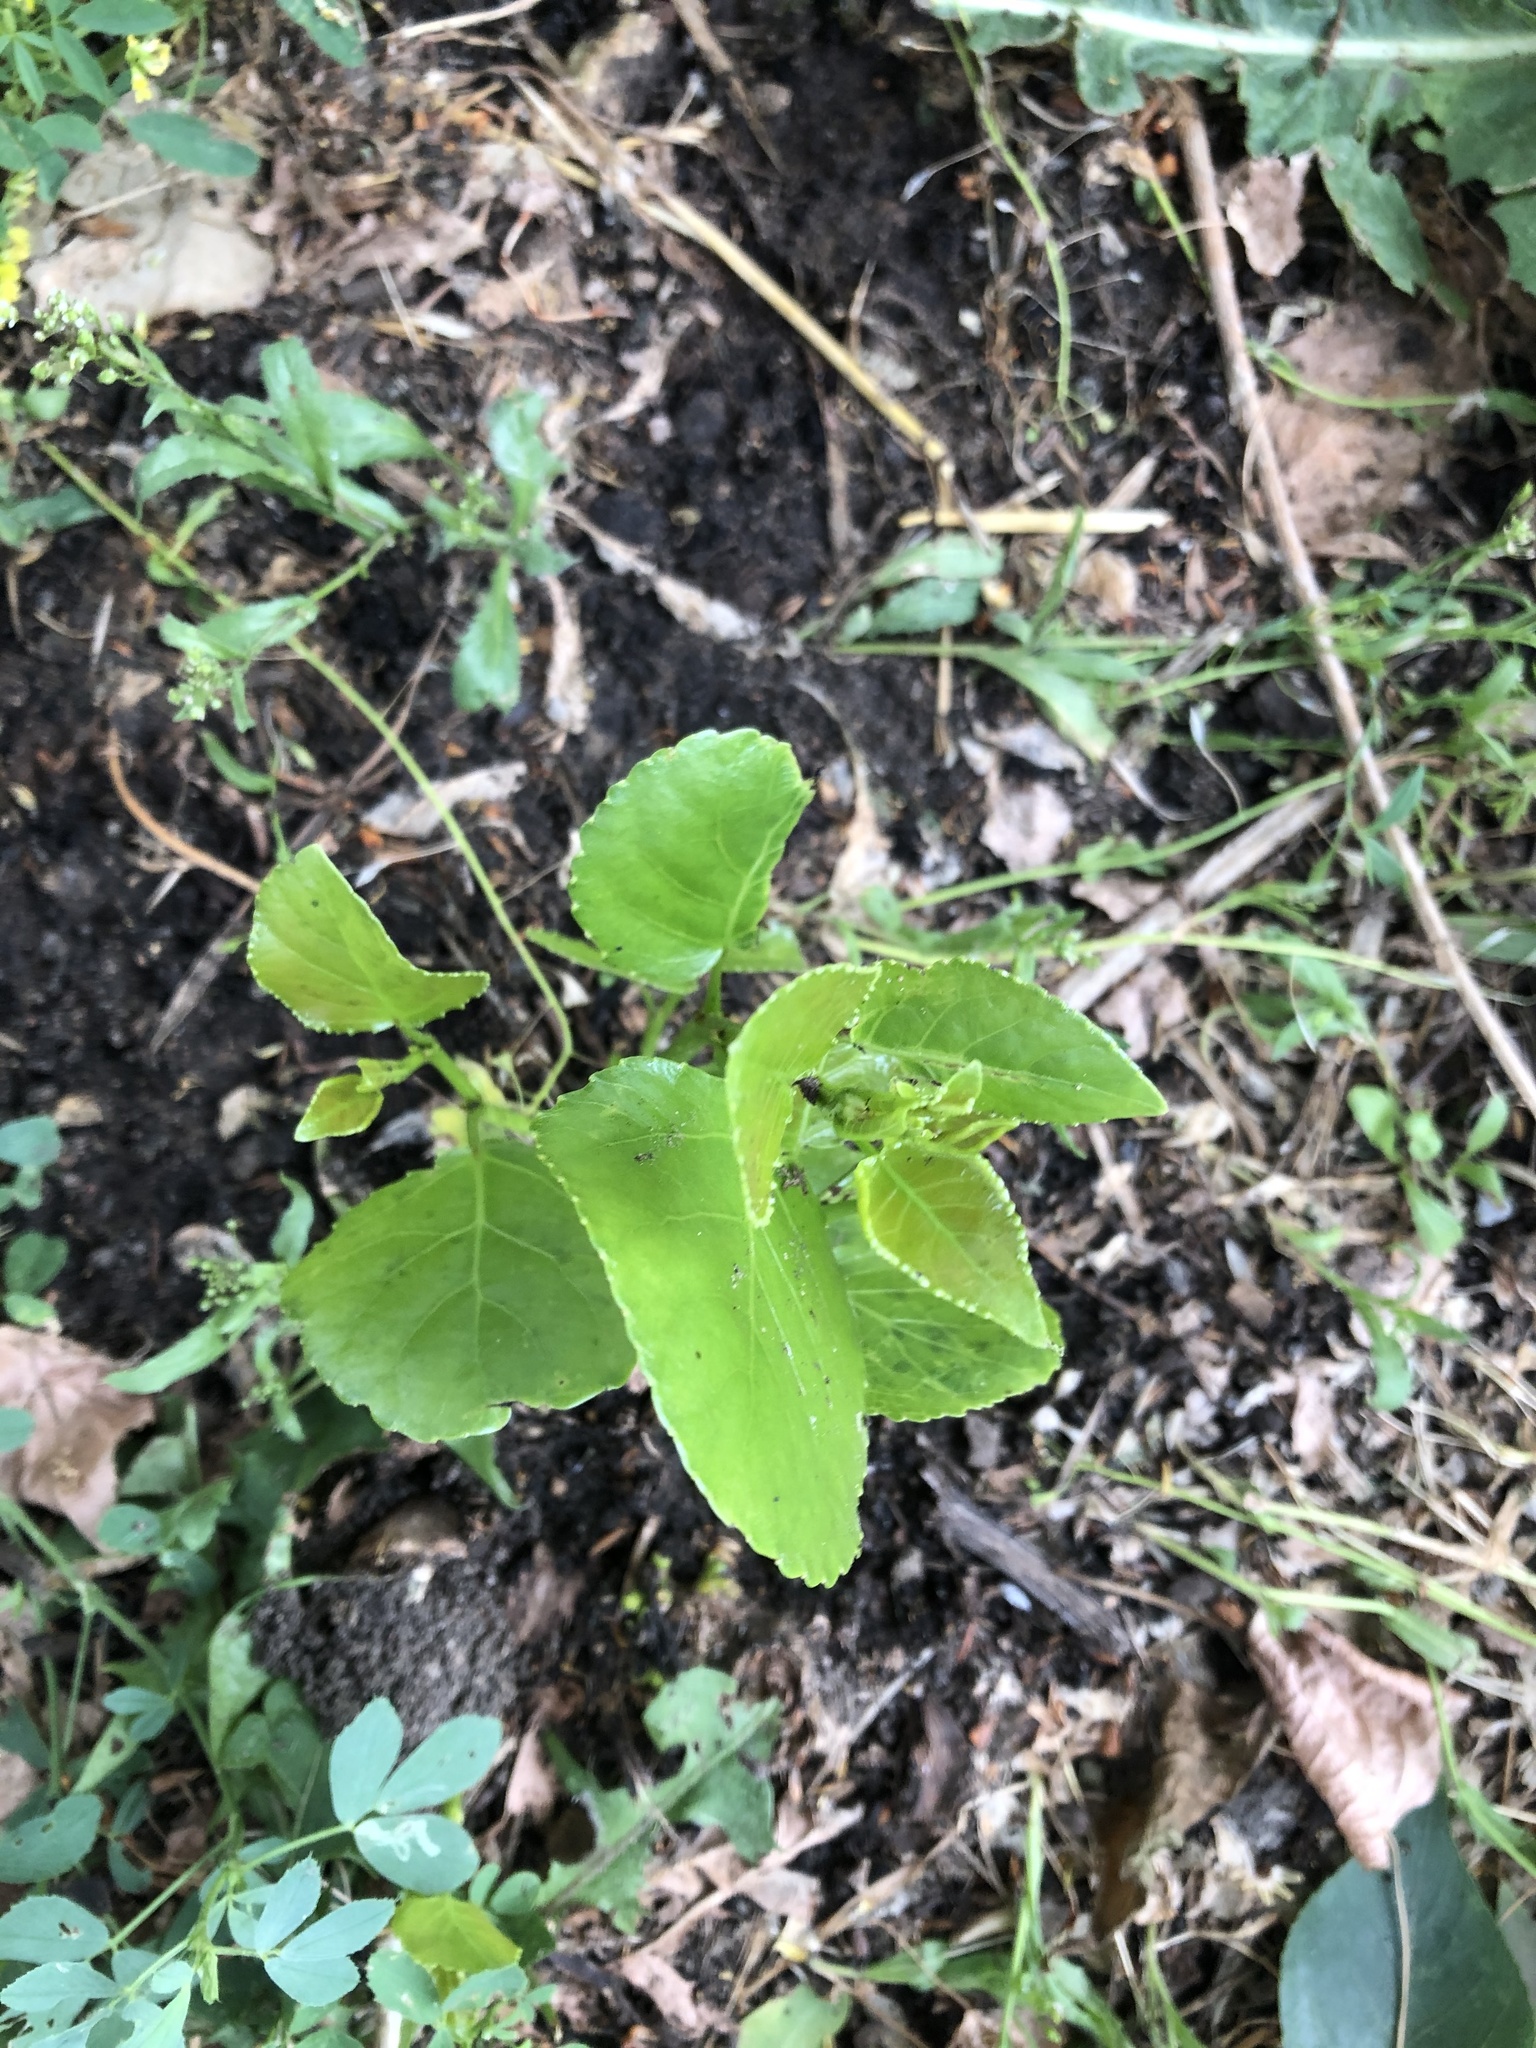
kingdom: Plantae
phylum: Tracheophyta
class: Magnoliopsida
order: Malpighiales
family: Salicaceae
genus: Populus
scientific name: Populus
